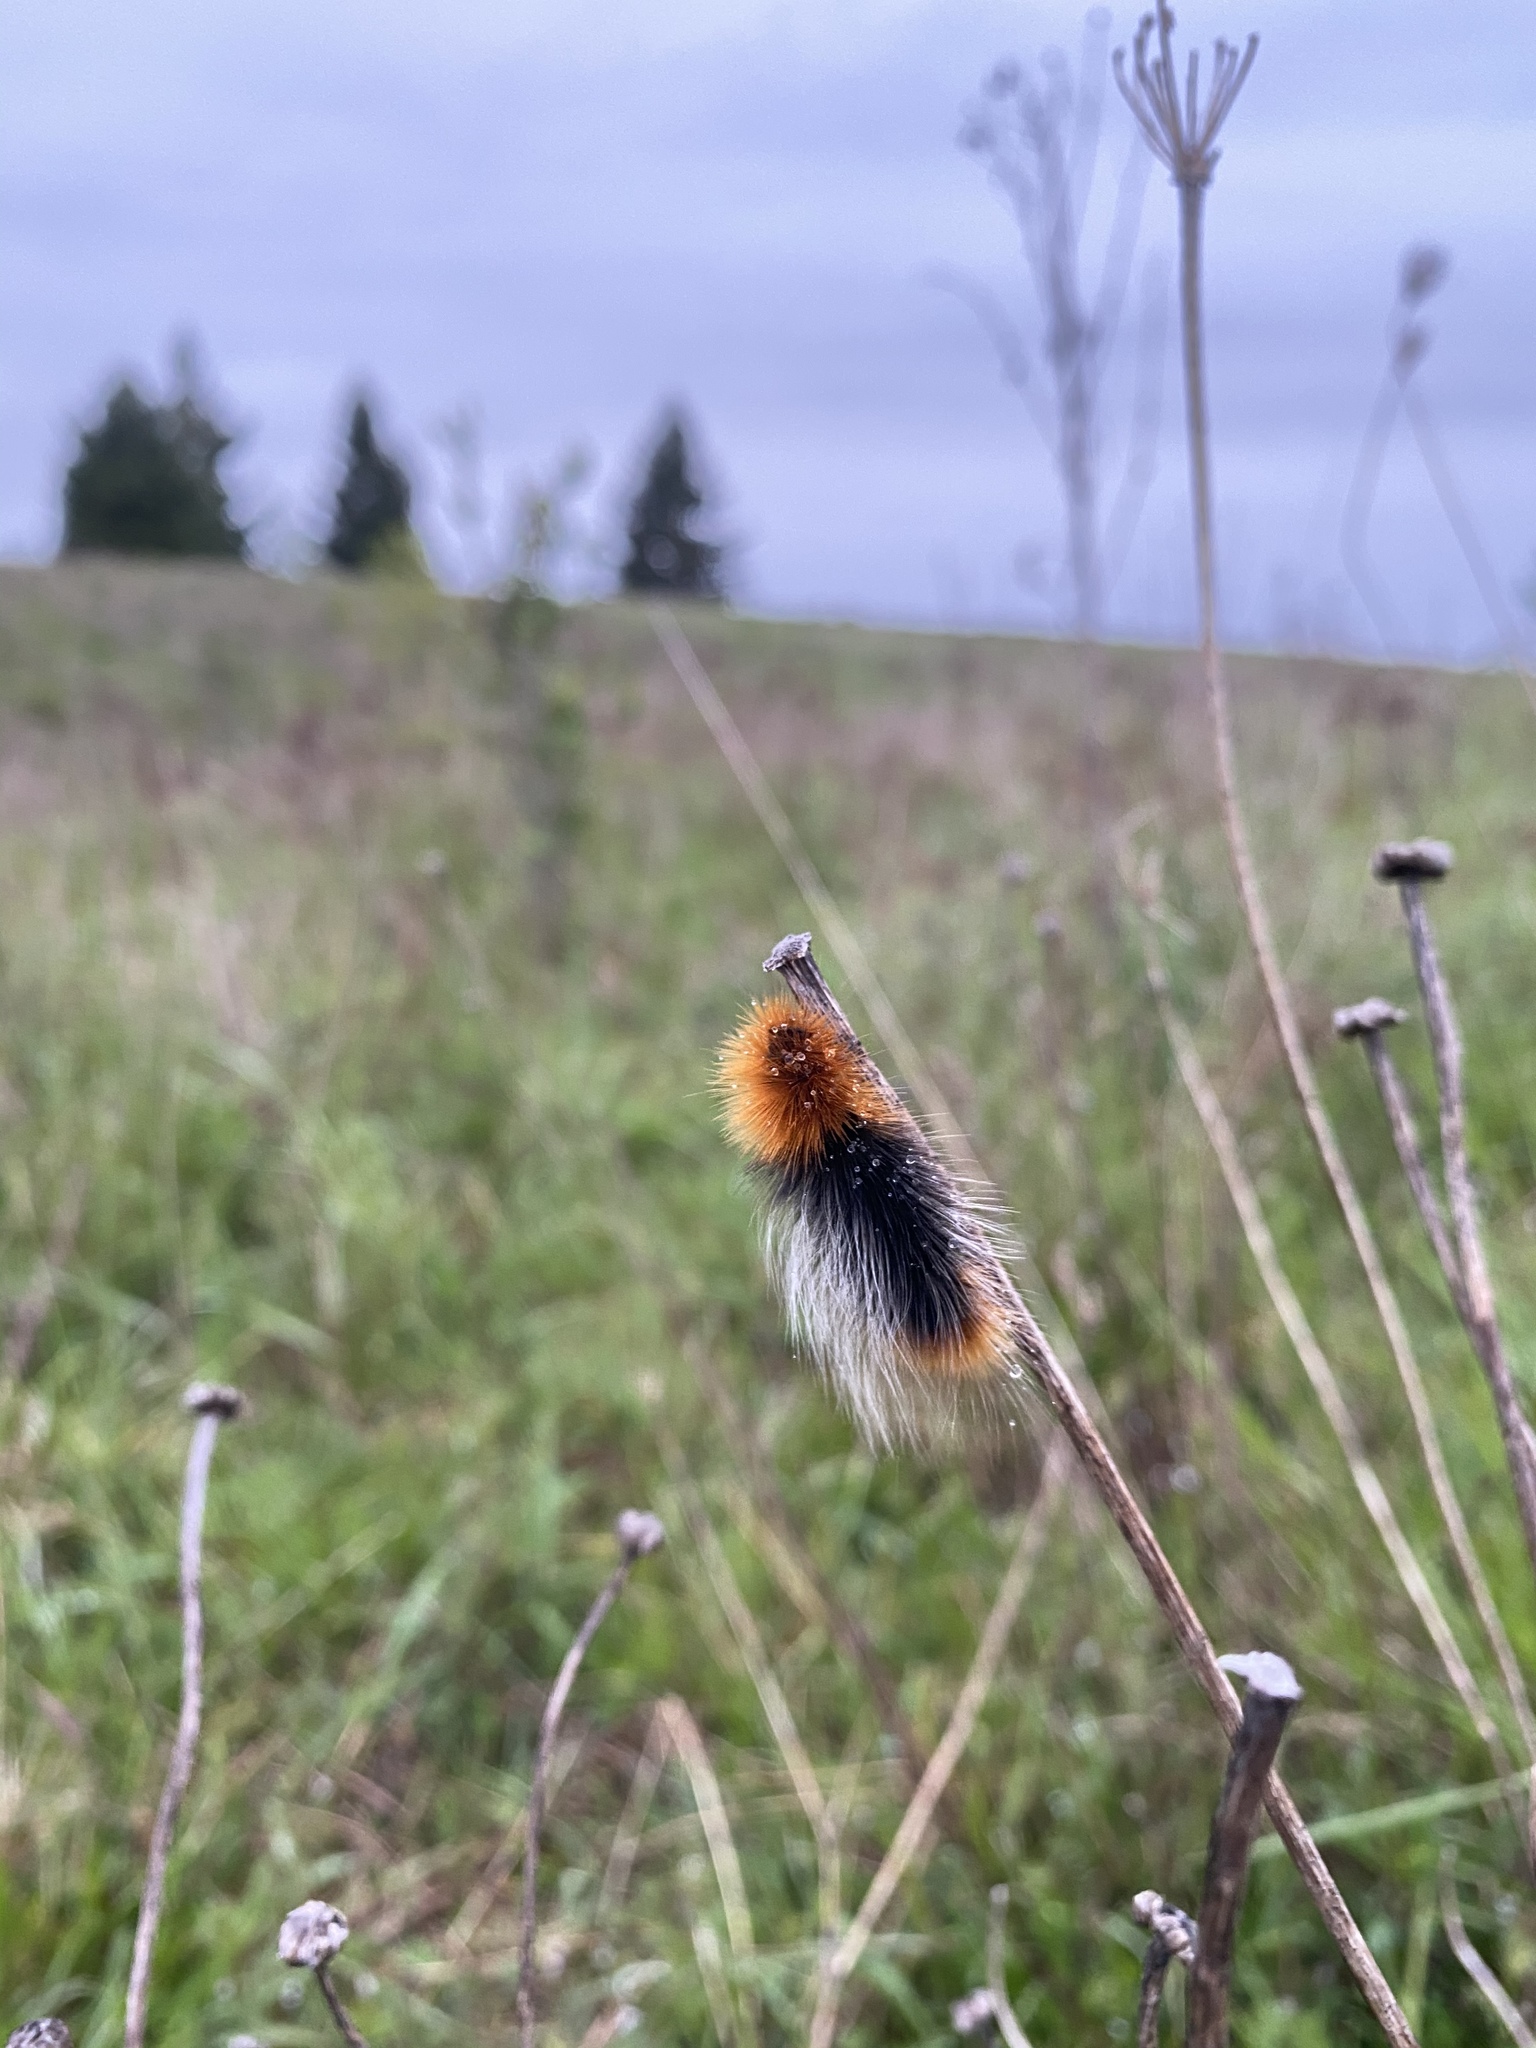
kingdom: Animalia
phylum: Arthropoda
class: Insecta
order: Lepidoptera
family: Erebidae
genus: Arctia
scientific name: Arctia tigrina
